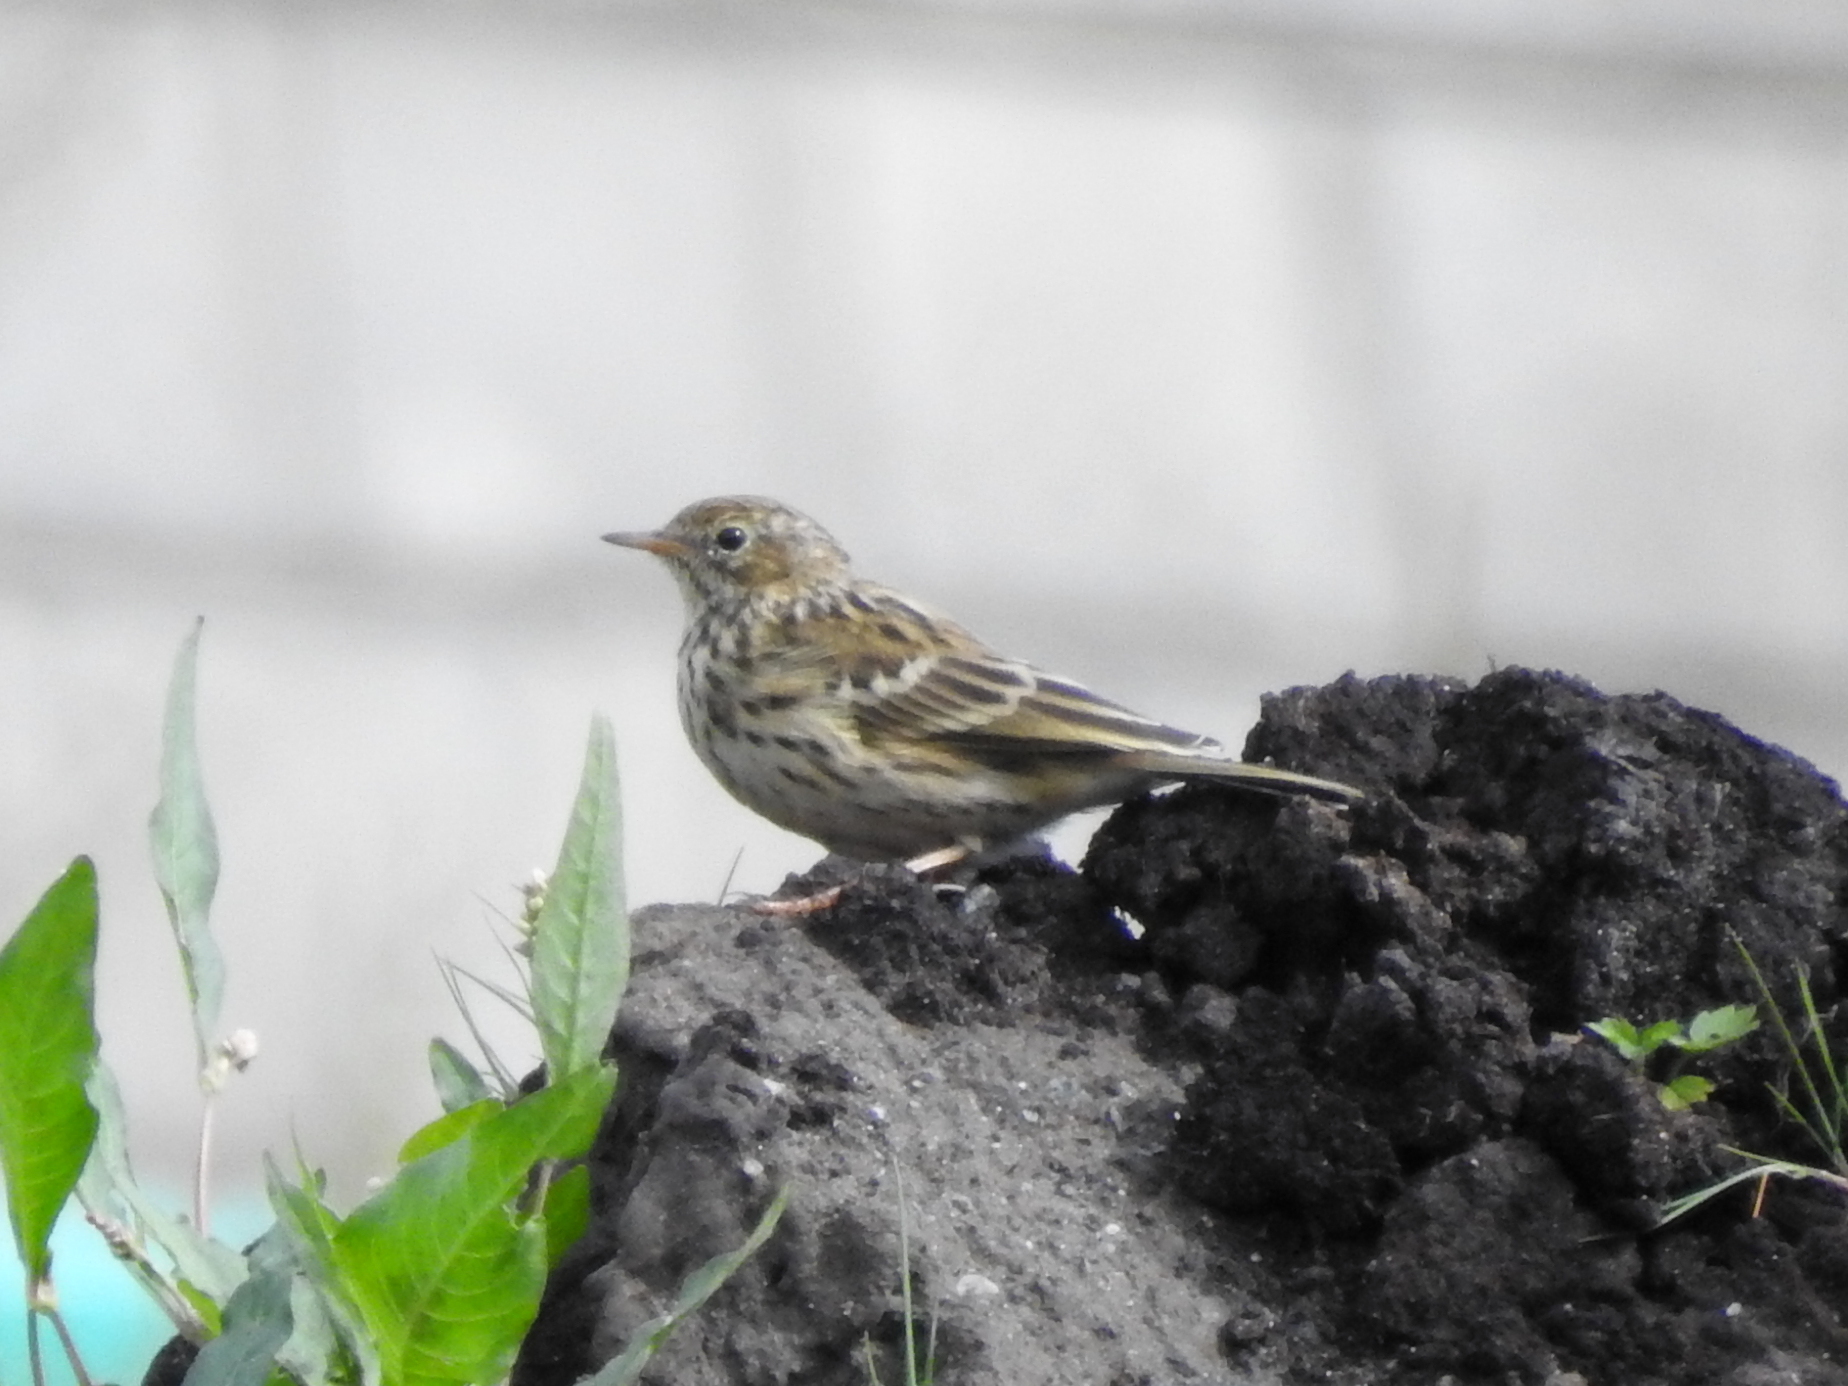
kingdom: Animalia
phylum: Chordata
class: Aves
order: Passeriformes
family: Motacillidae
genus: Anthus
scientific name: Anthus pratensis
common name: Meadow pipit
